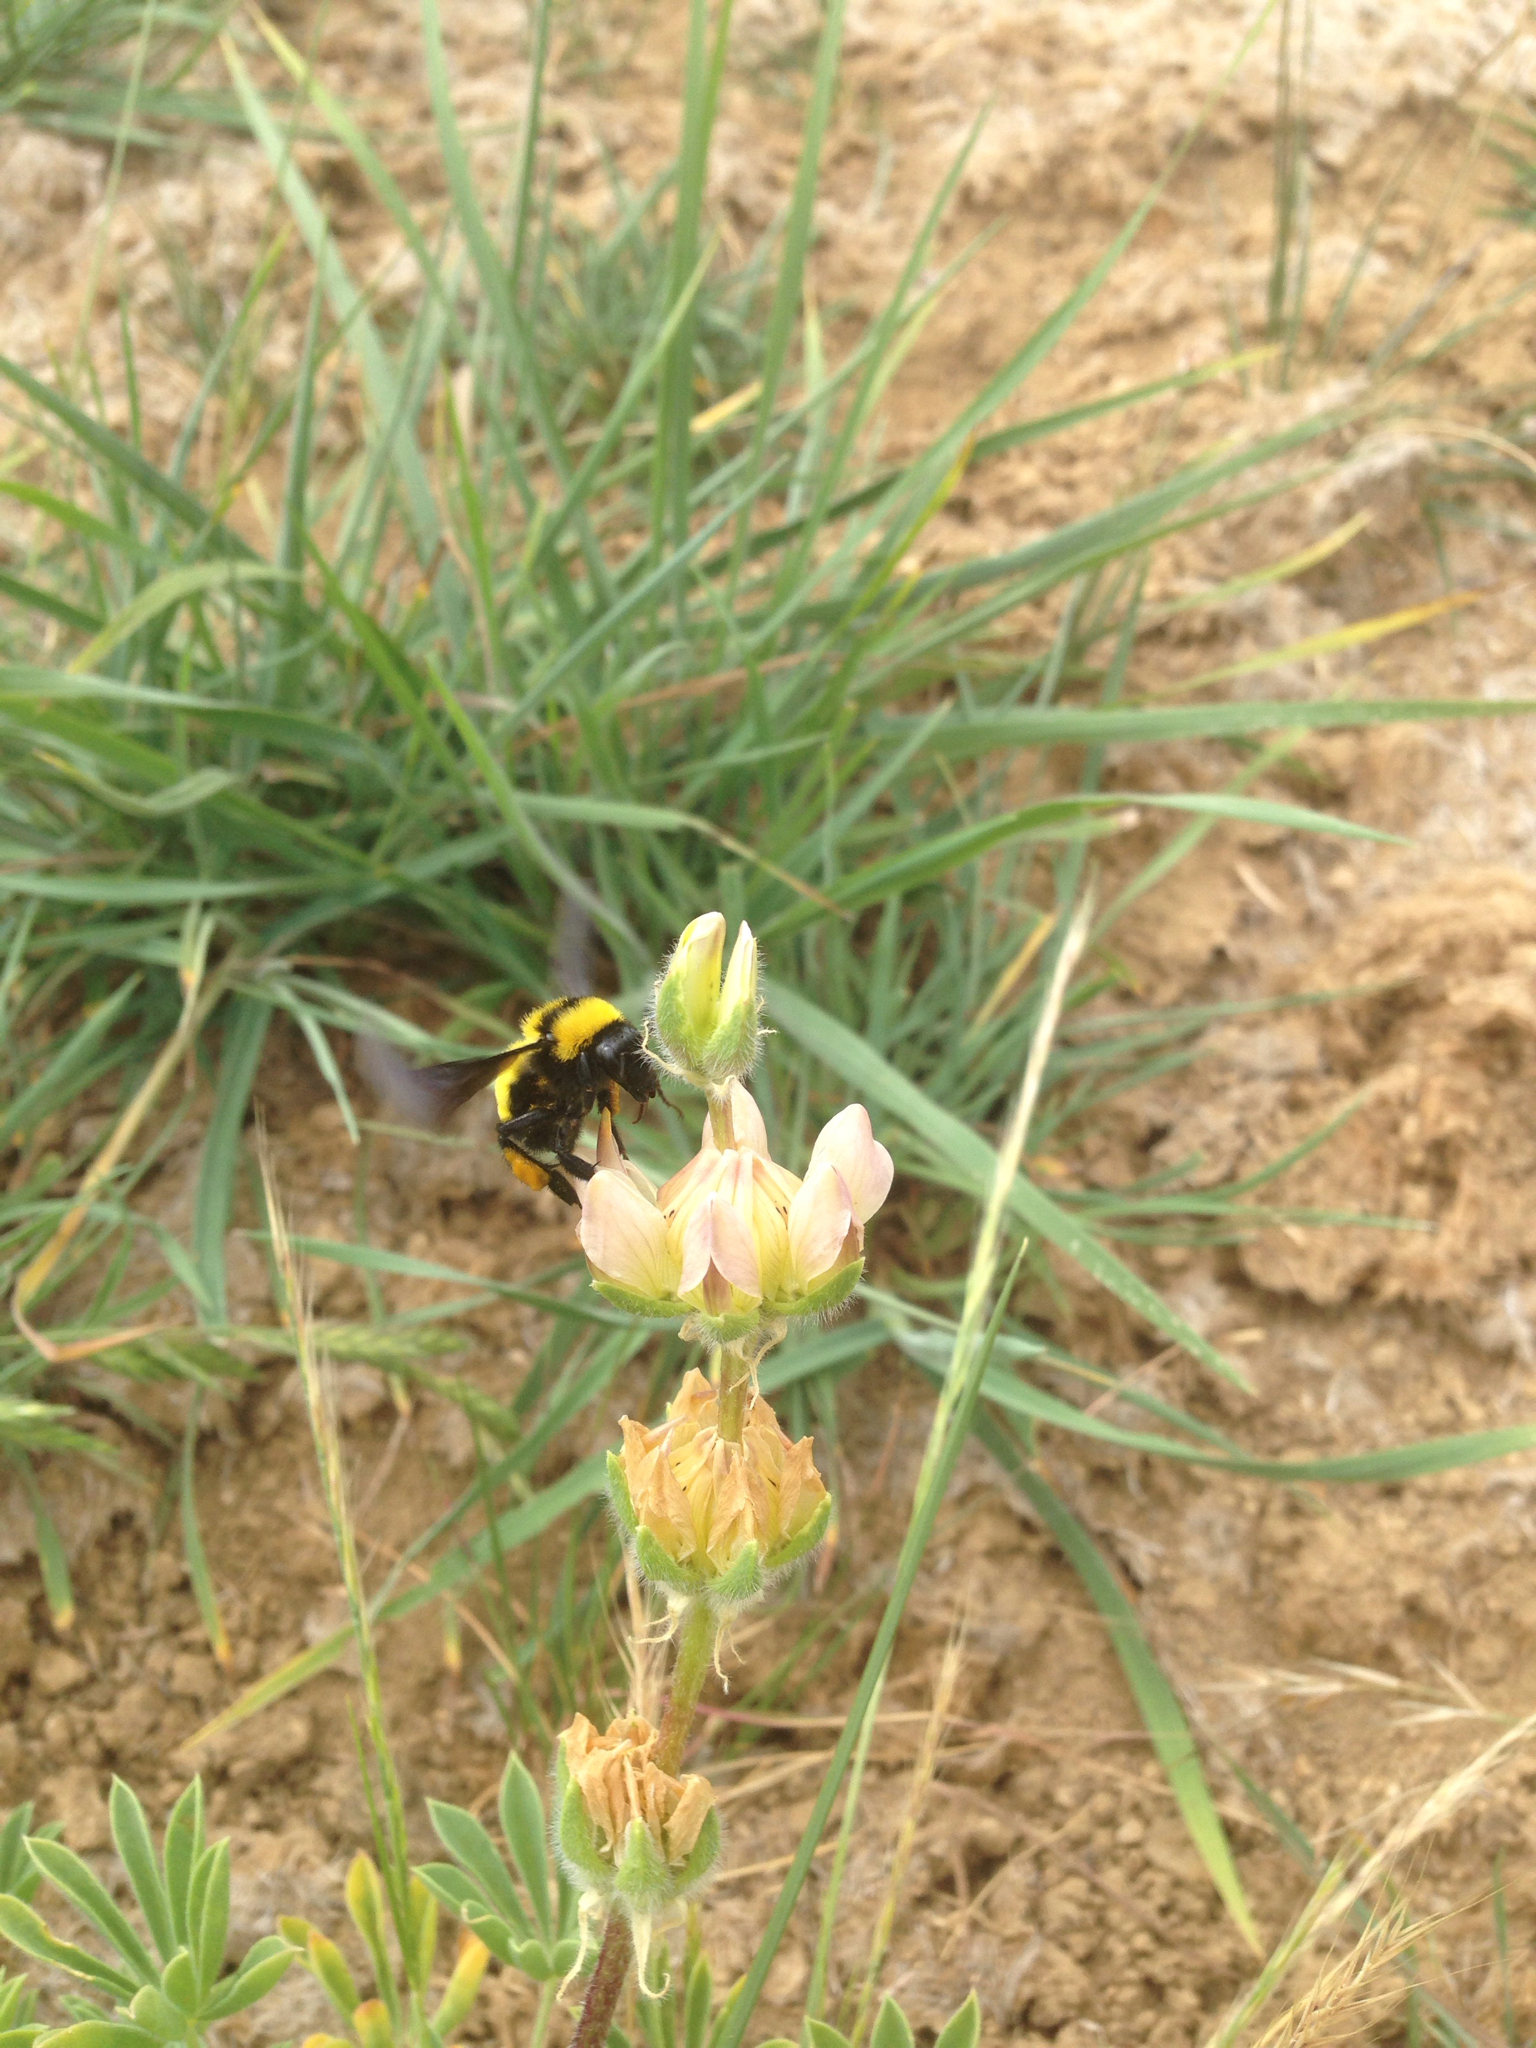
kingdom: Animalia
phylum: Arthropoda
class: Insecta
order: Hymenoptera
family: Apidae
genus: Bombus
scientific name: Bombus sonorus
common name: Sonoran bumble bee
